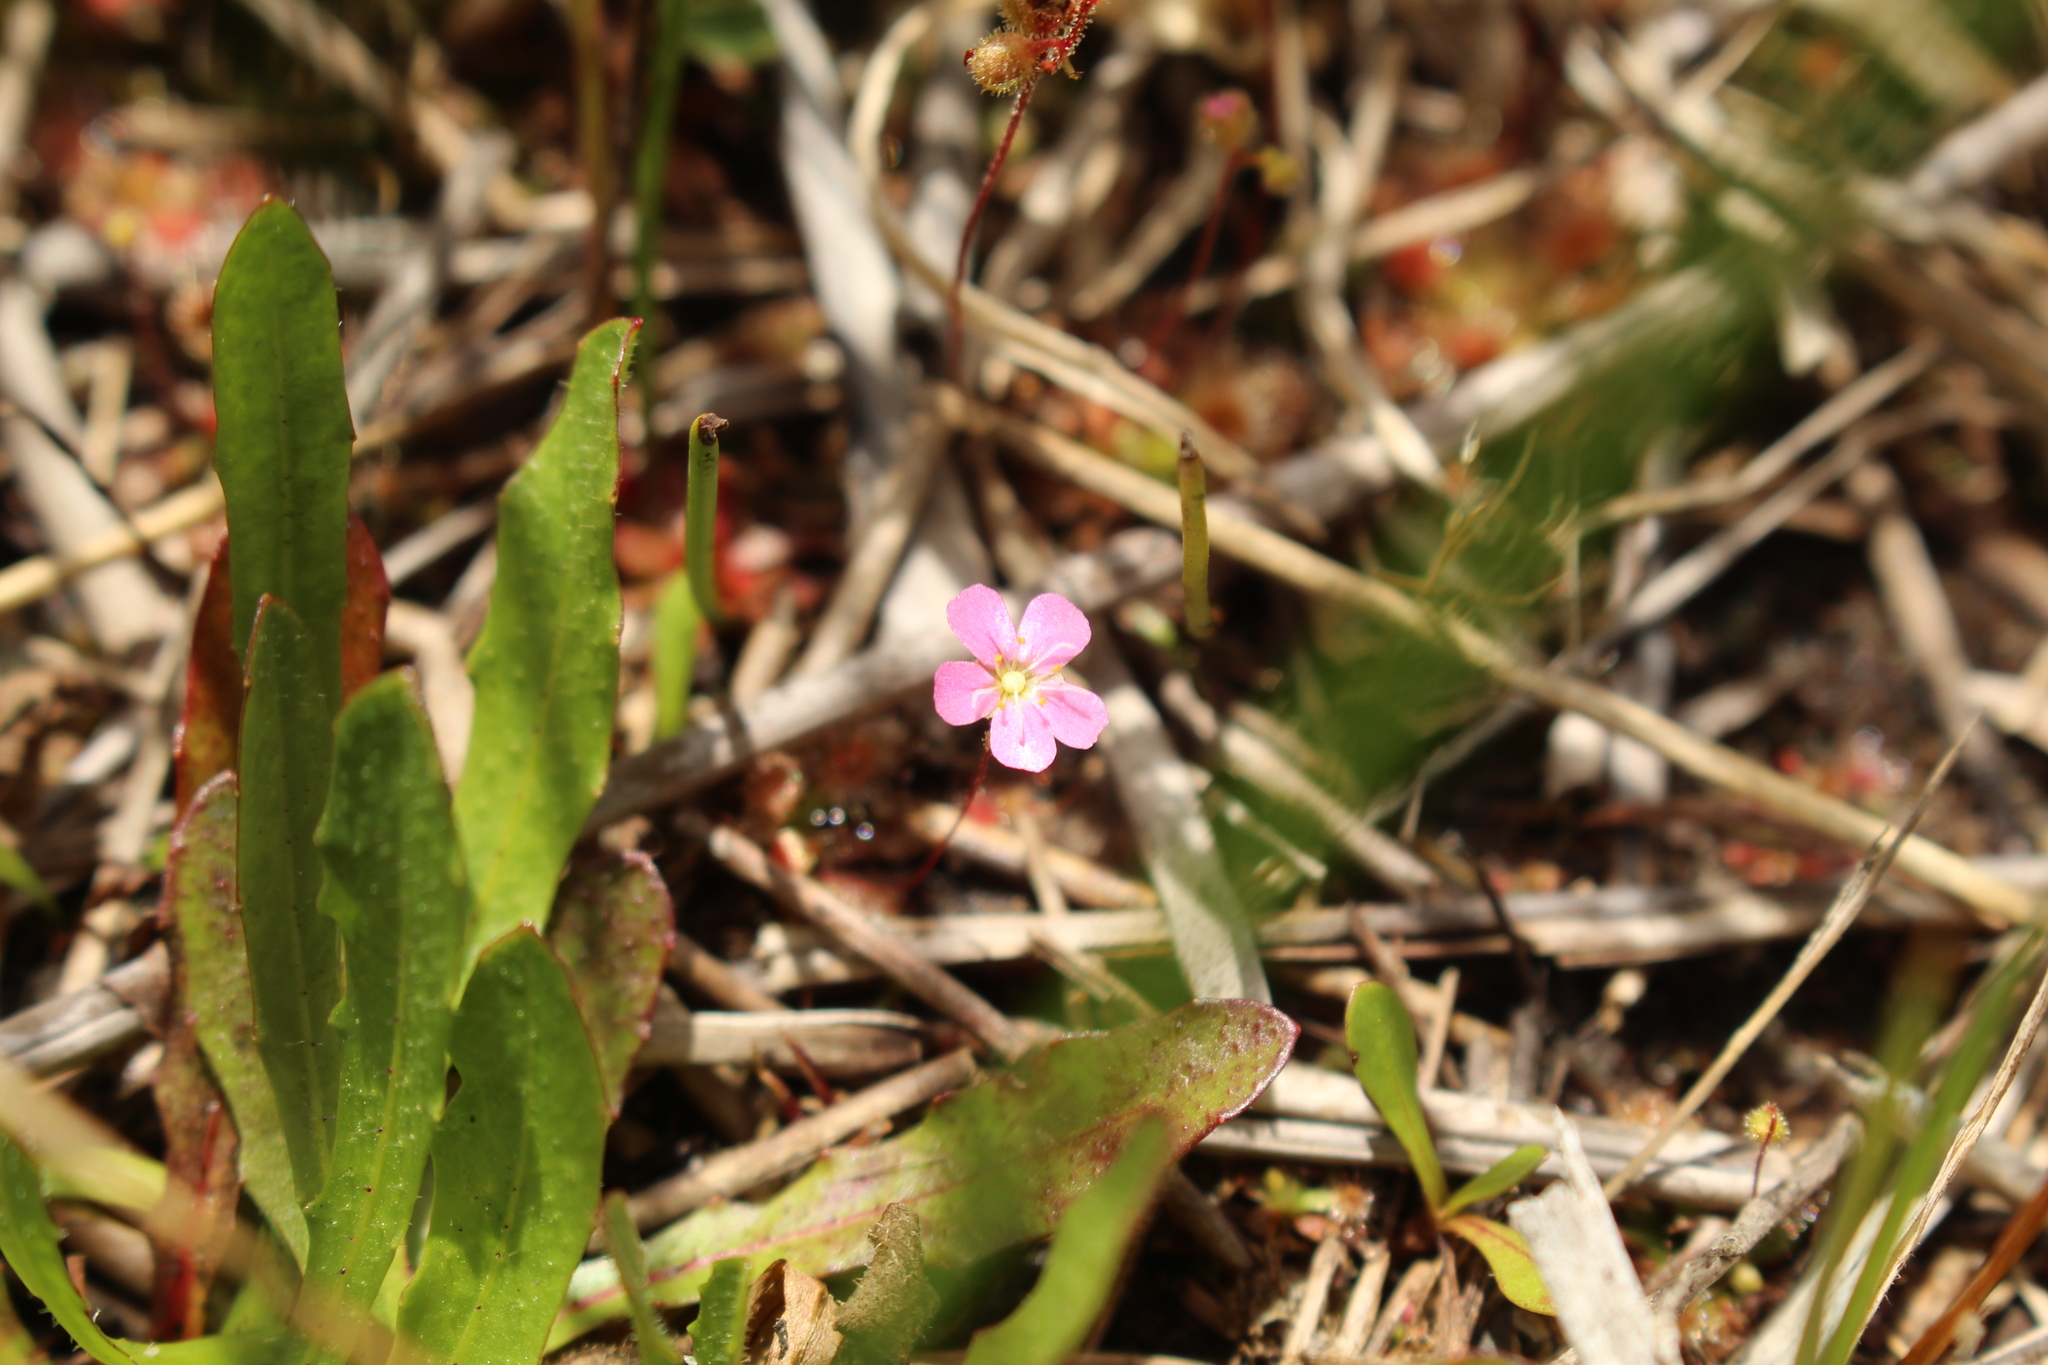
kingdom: Plantae
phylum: Tracheophyta
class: Magnoliopsida
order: Caryophyllales
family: Droseraceae
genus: Drosera
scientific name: Drosera pulchella
